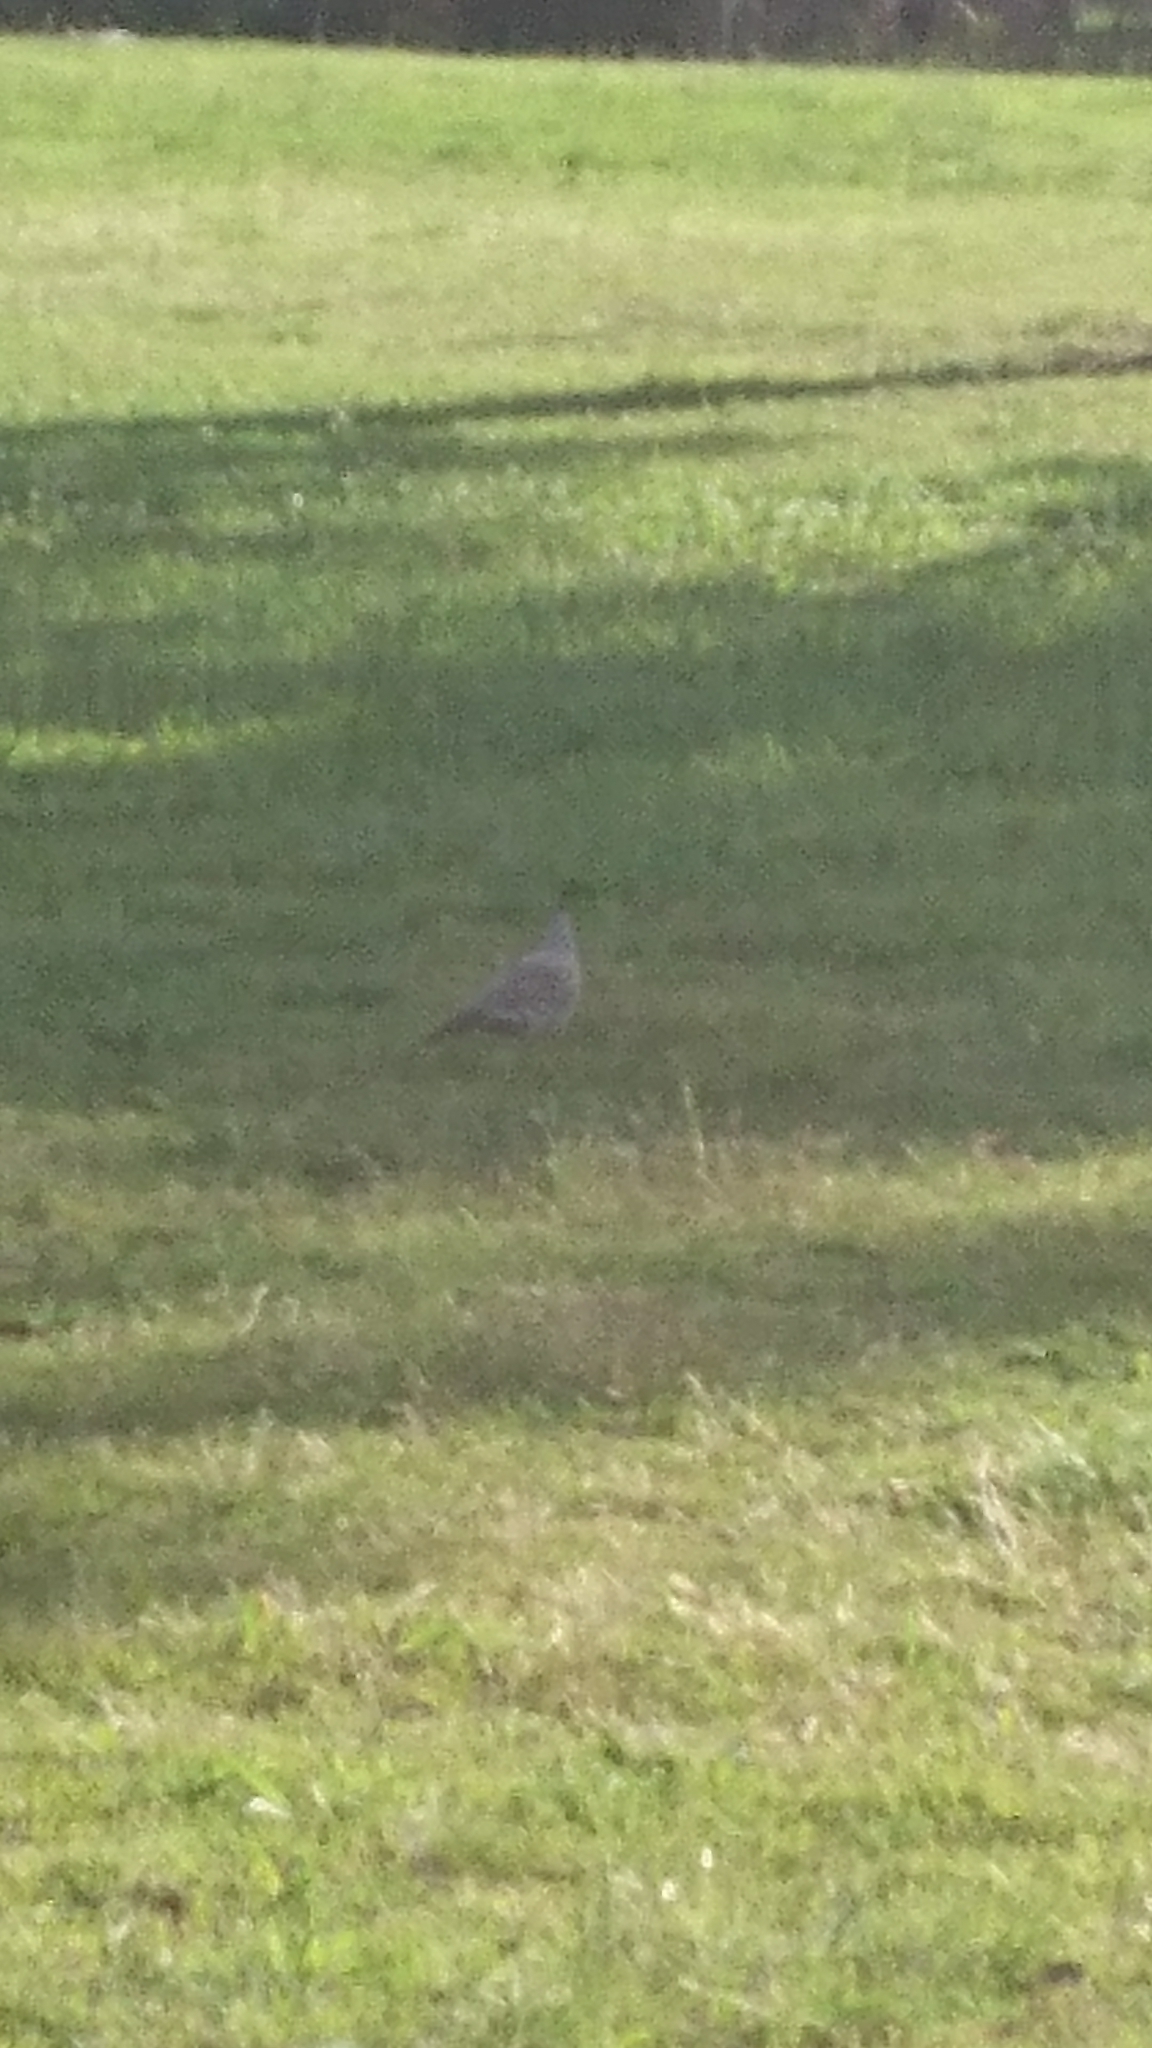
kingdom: Animalia
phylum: Chordata
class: Aves
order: Columbiformes
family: Columbidae
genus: Ocyphaps
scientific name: Ocyphaps lophotes
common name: Crested pigeon
